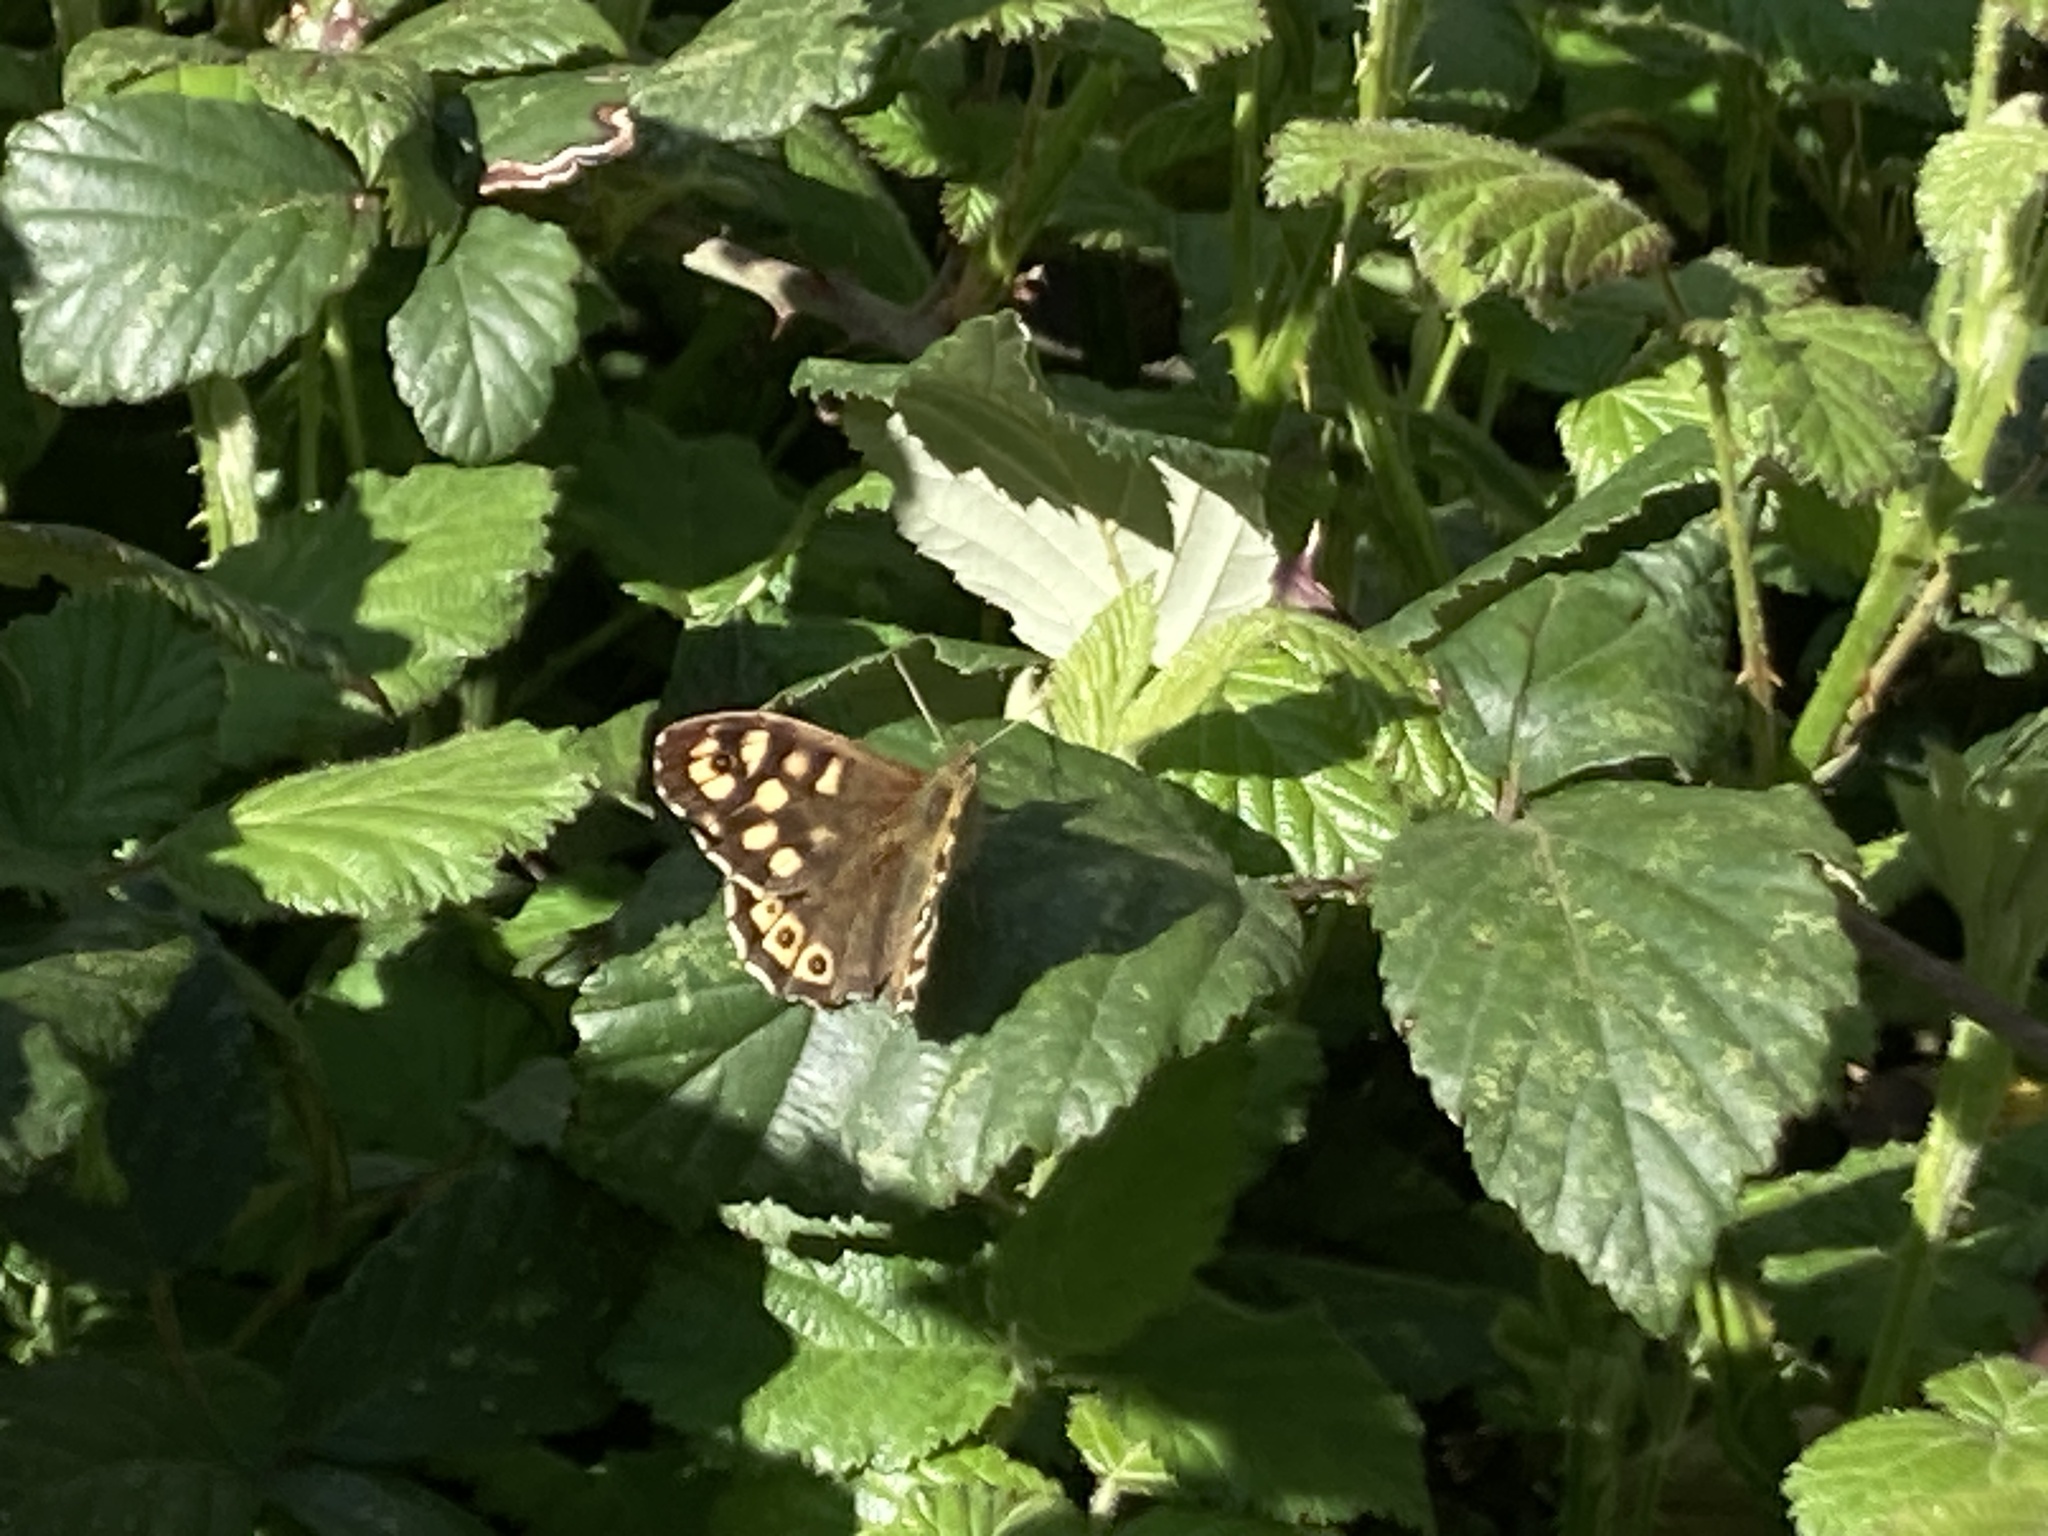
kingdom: Animalia
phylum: Arthropoda
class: Insecta
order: Lepidoptera
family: Nymphalidae
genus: Pararge
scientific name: Pararge aegeria
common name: Speckled wood
